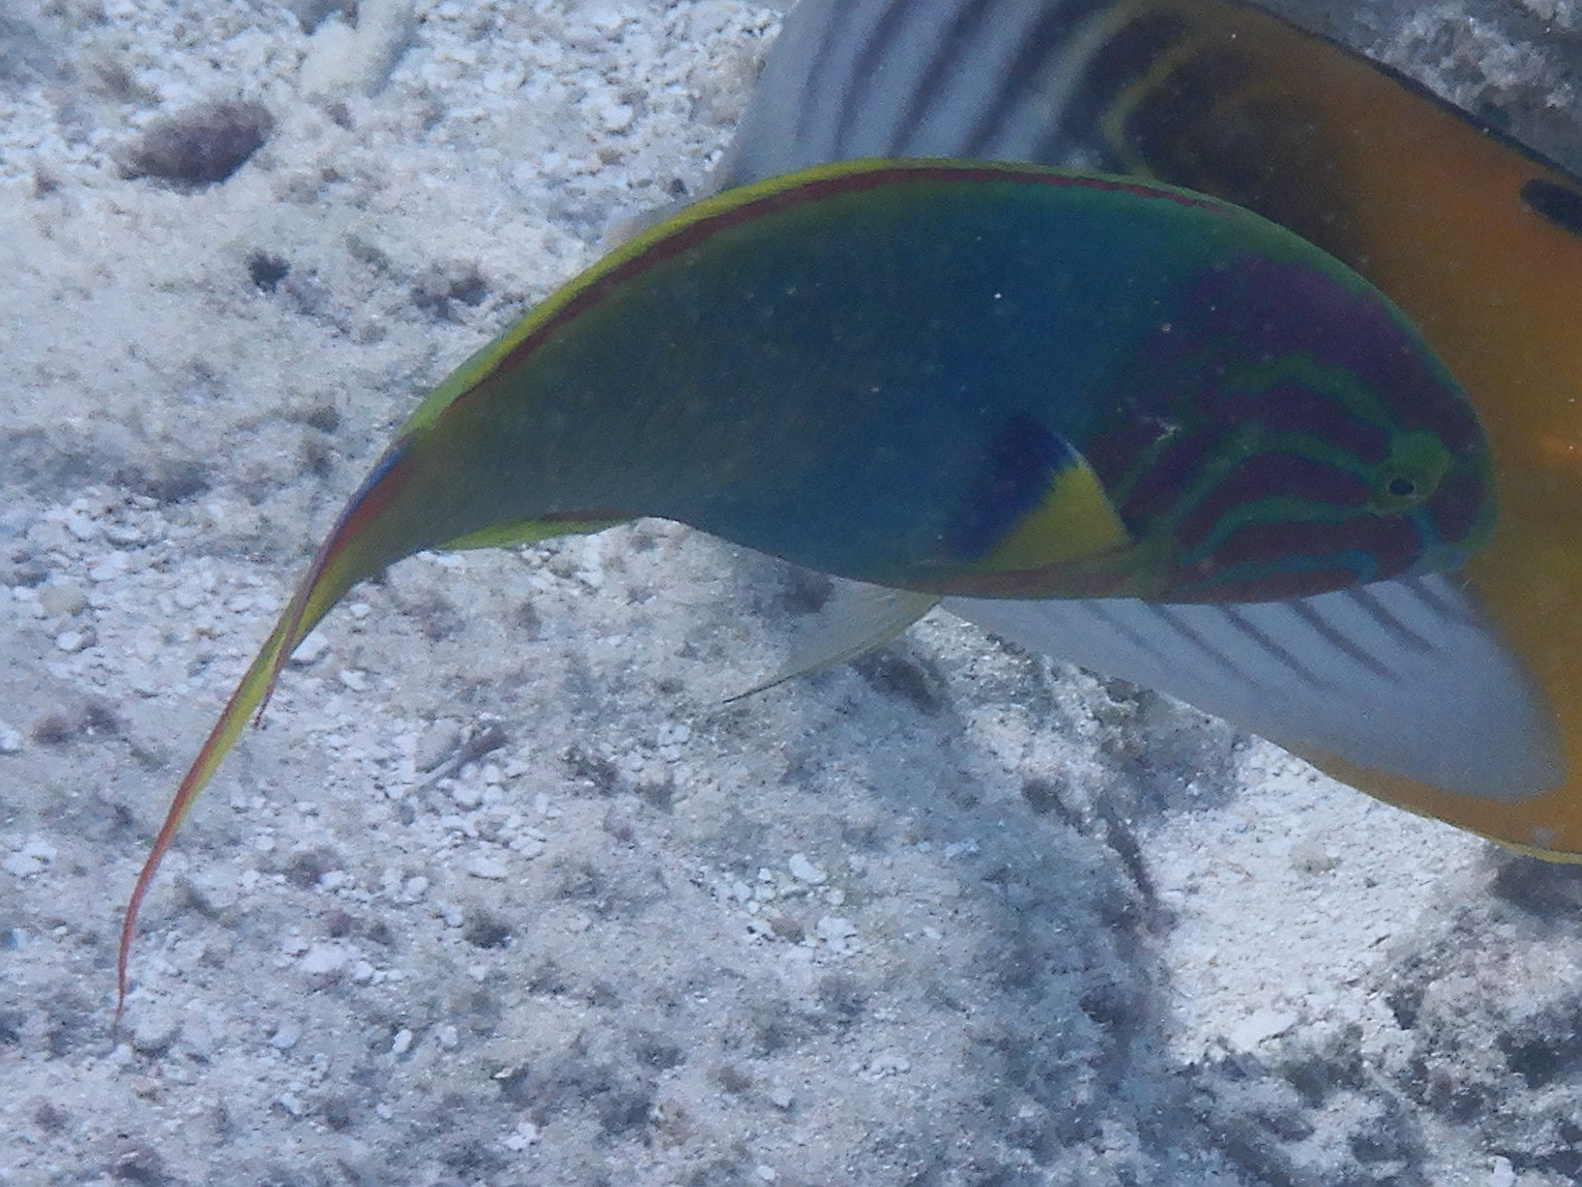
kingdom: Animalia
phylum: Chordata
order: Perciformes
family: Labridae
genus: Thalassoma
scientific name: Thalassoma lutescens
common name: Green moon wrasse
